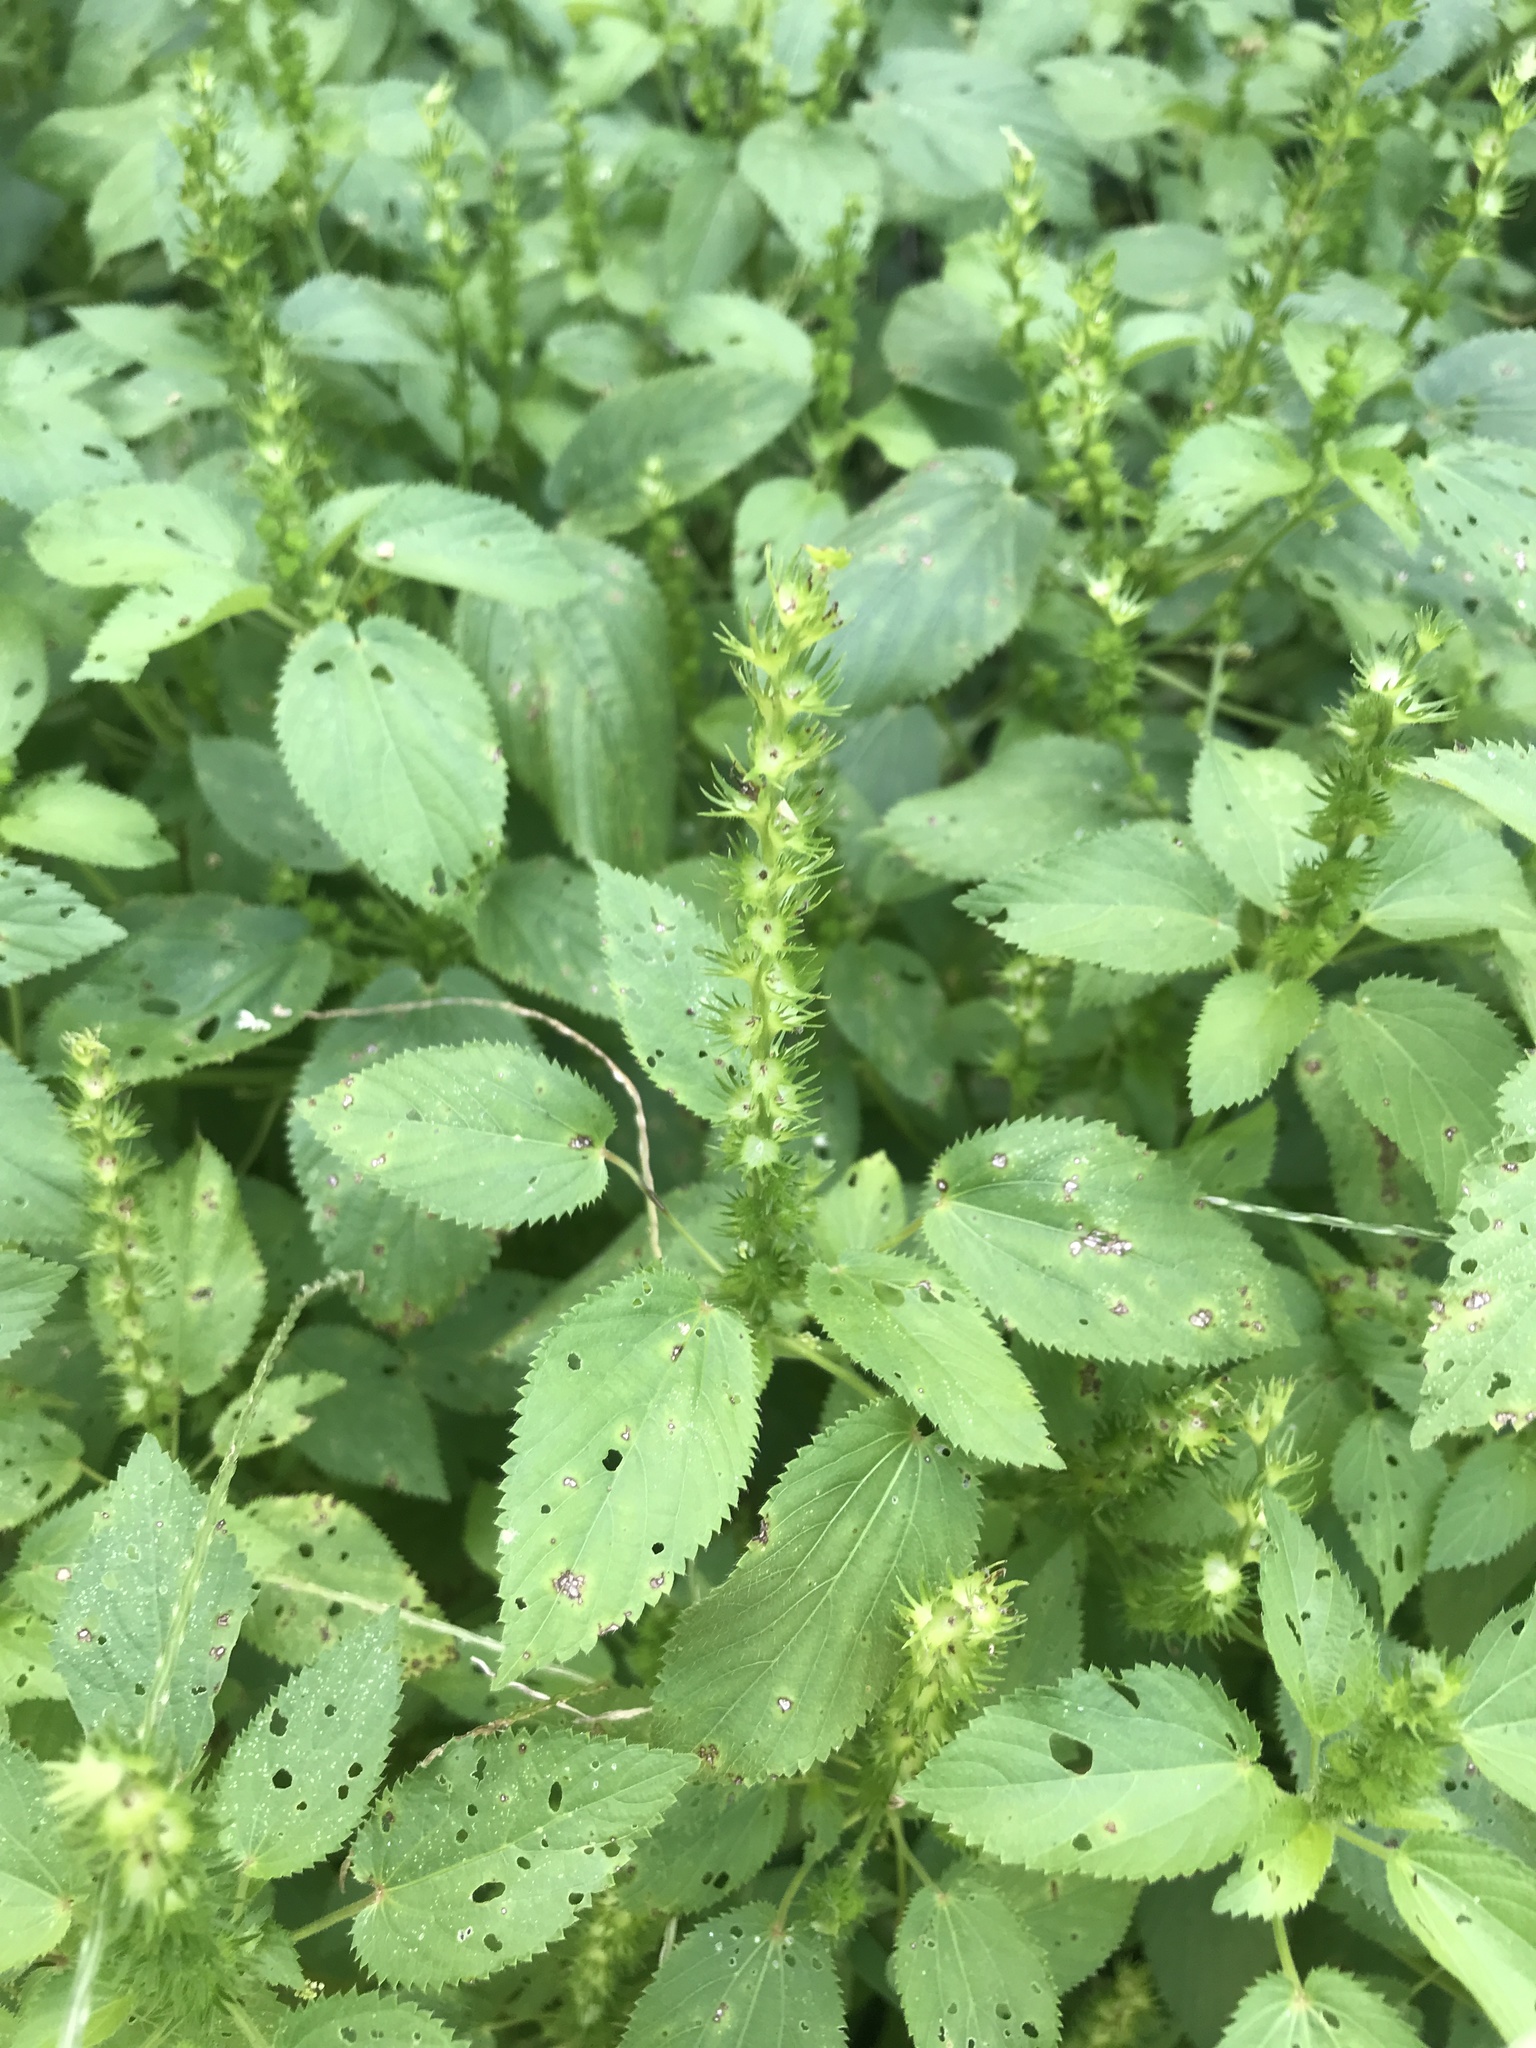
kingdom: Plantae
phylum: Tracheophyta
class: Magnoliopsida
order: Malpighiales
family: Euphorbiaceae
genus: Acalypha
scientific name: Acalypha ostryifolia
